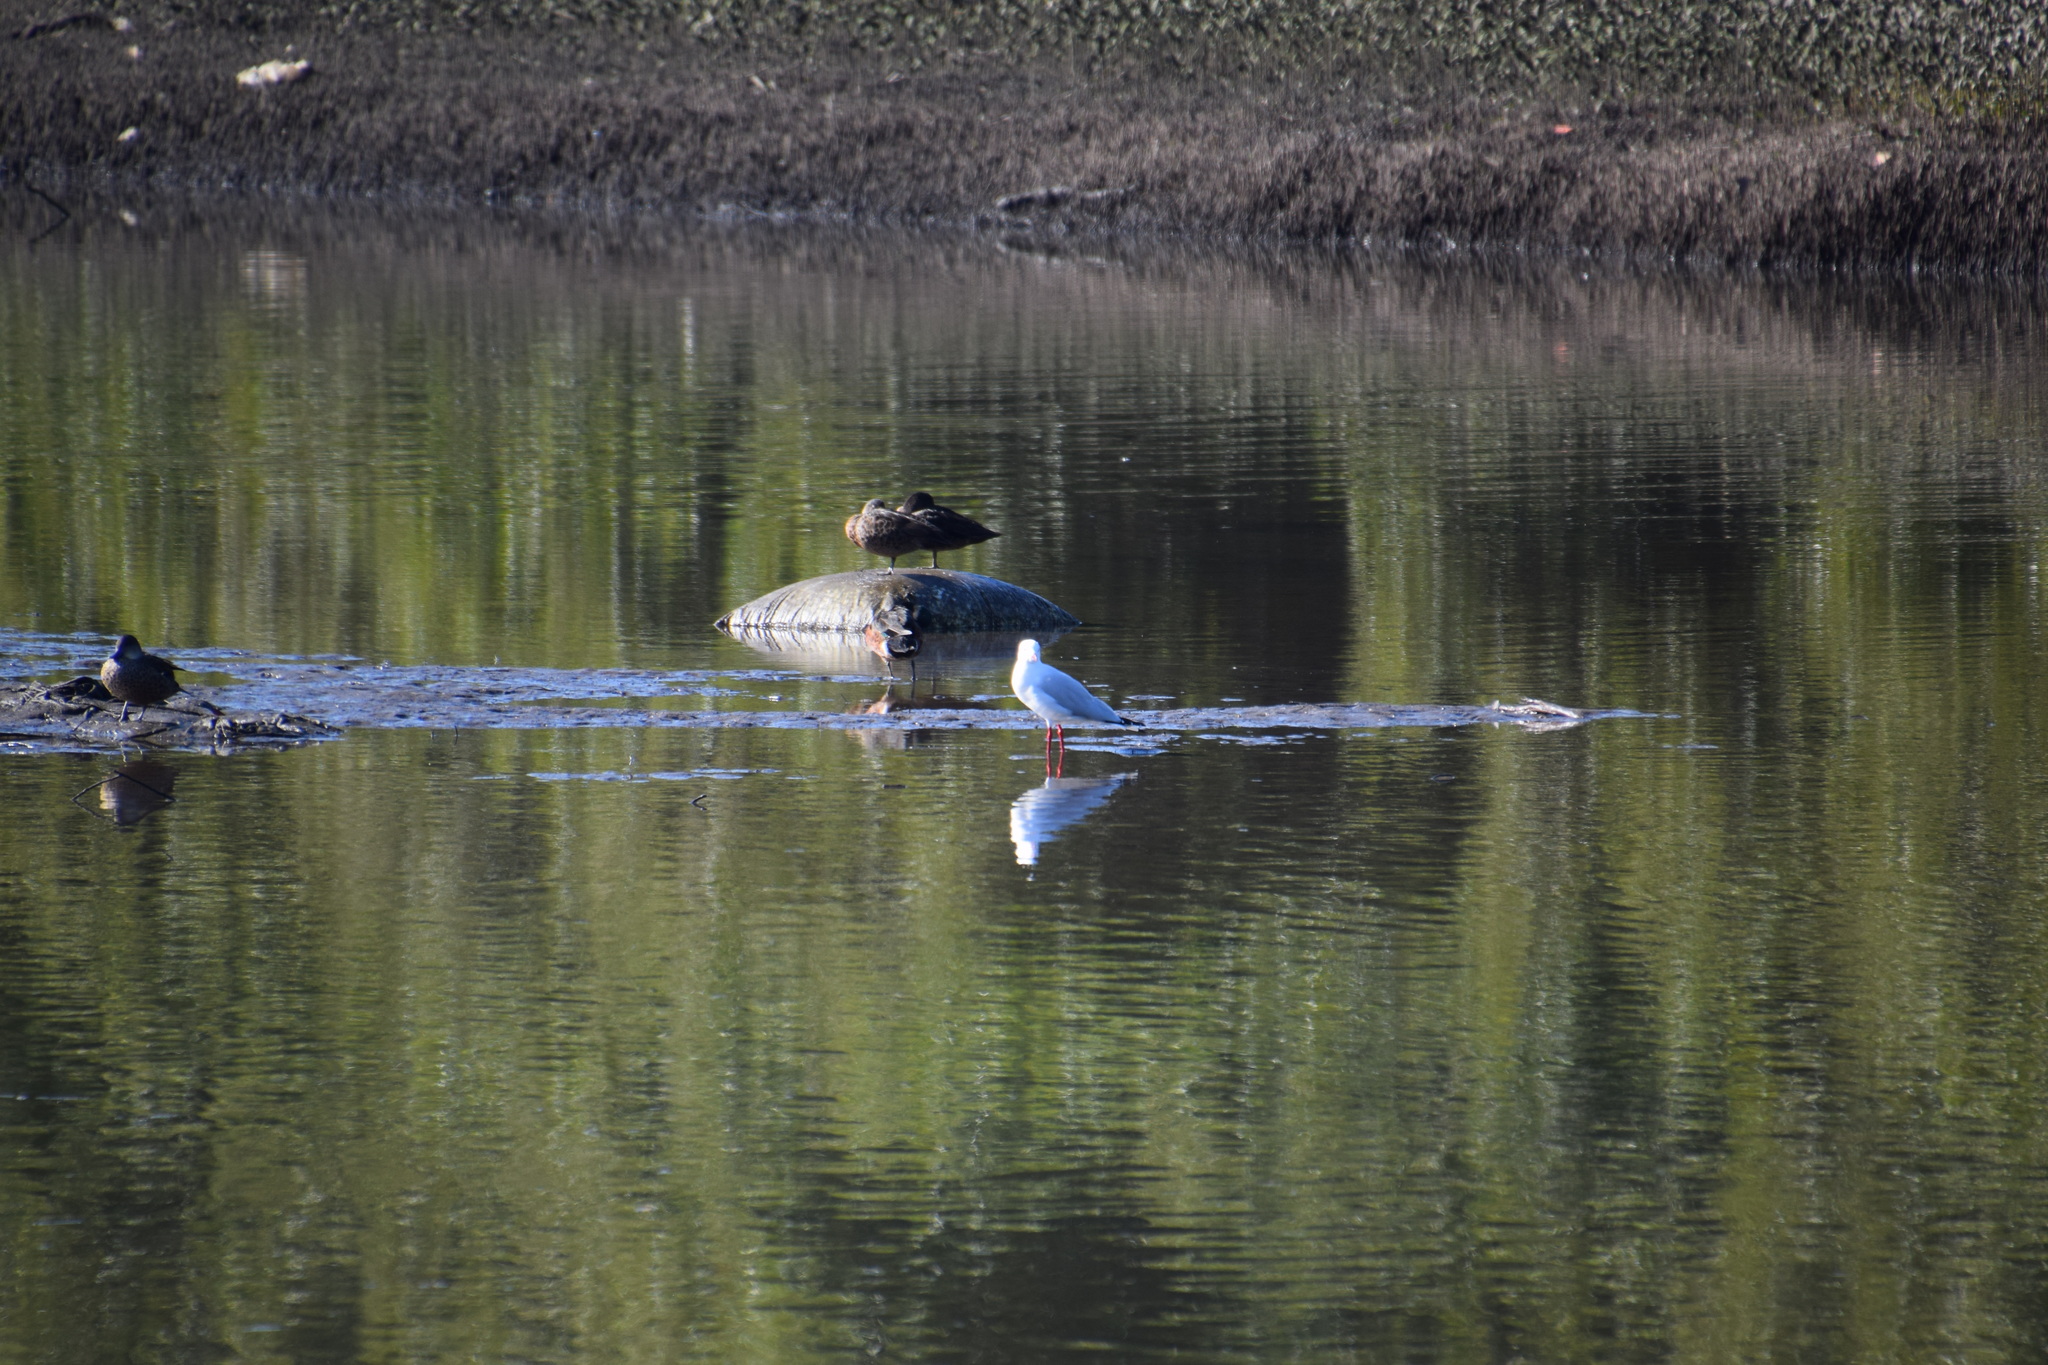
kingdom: Animalia
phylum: Chordata
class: Aves
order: Charadriiformes
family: Laridae
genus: Chroicocephalus
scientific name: Chroicocephalus novaehollandiae
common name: Silver gull
